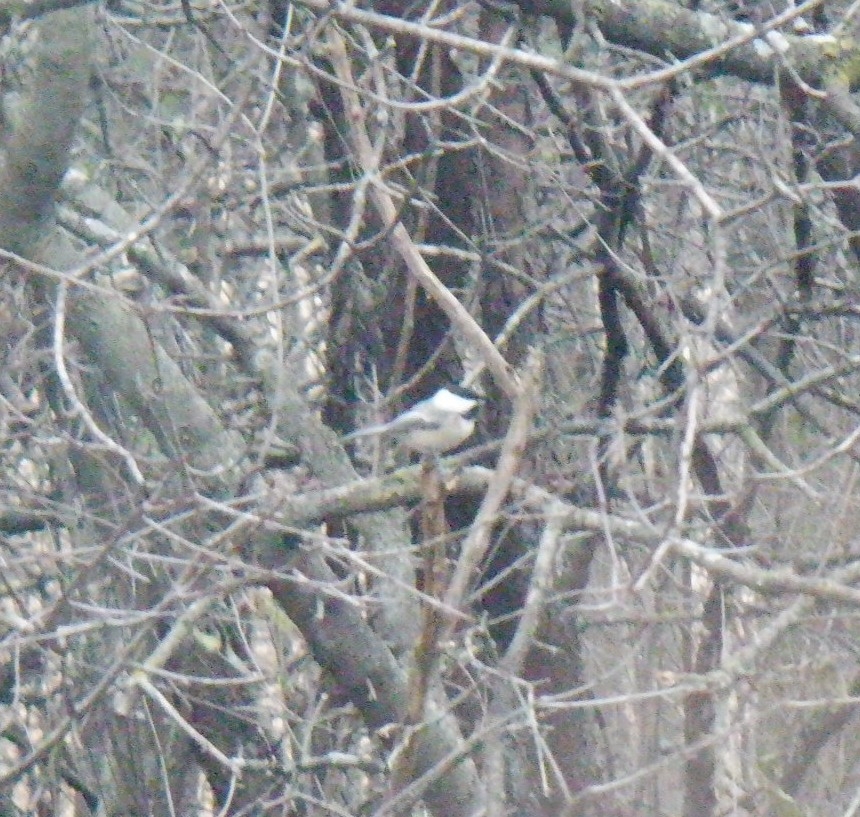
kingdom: Animalia
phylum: Chordata
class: Aves
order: Passeriformes
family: Paridae
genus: Poecile
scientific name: Poecile atricapillus
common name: Black-capped chickadee
